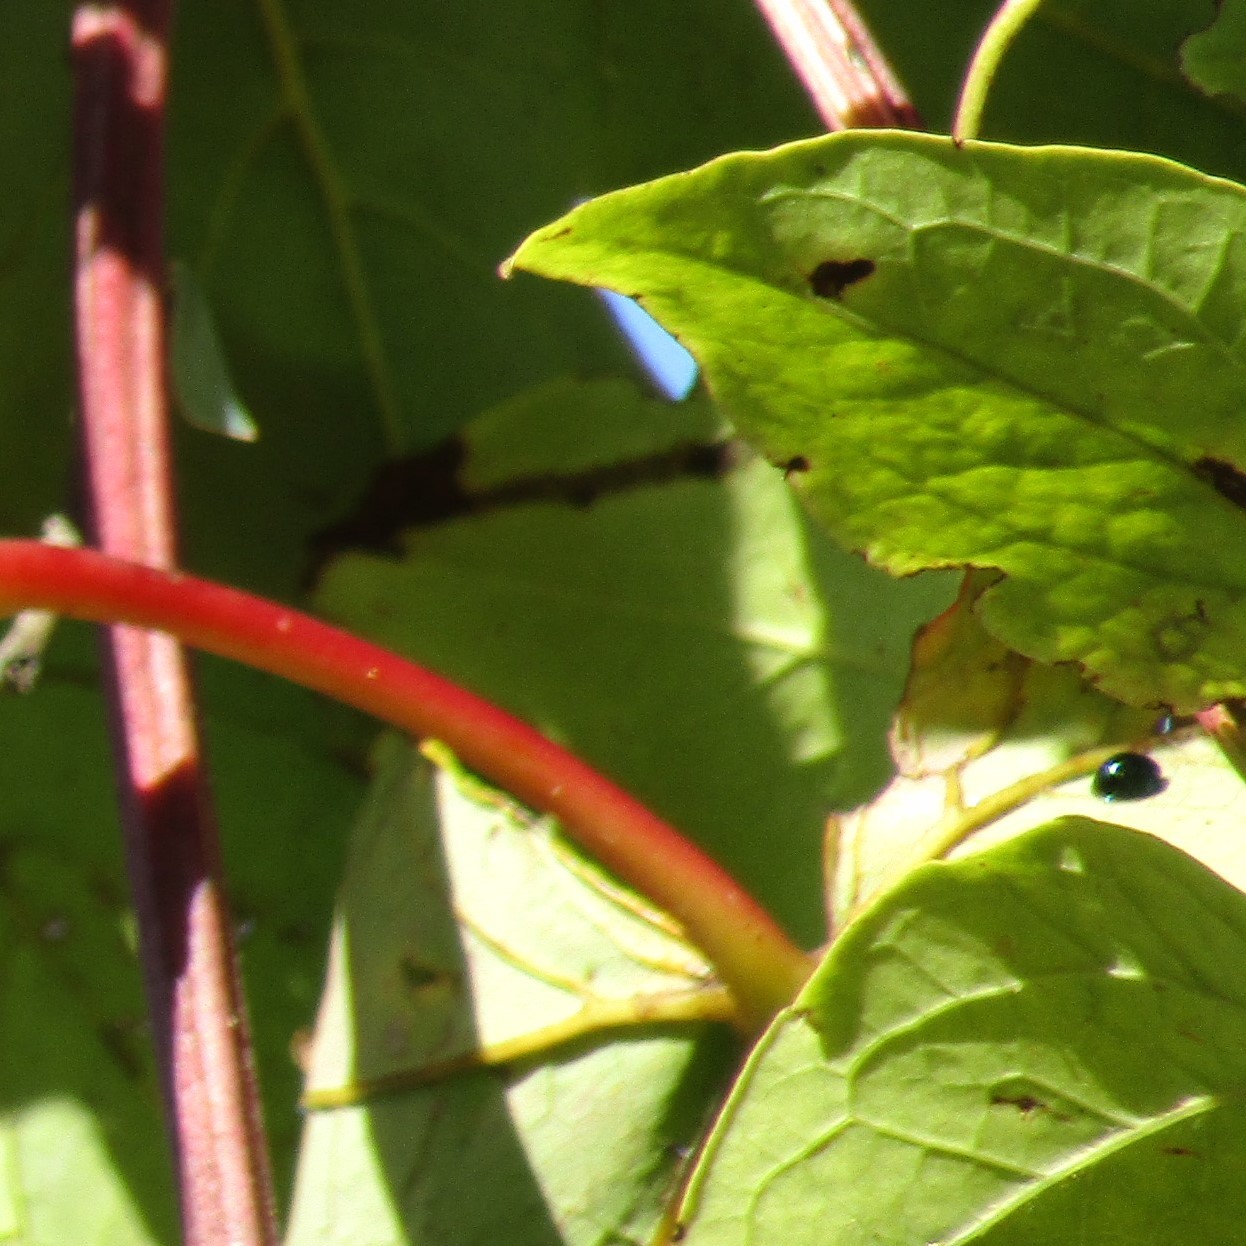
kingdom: Animalia
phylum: Arthropoda
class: Insecta
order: Coleoptera
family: Coccinellidae
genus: Halmus
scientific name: Halmus chalybeus
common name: Steel blue ladybird beetle
